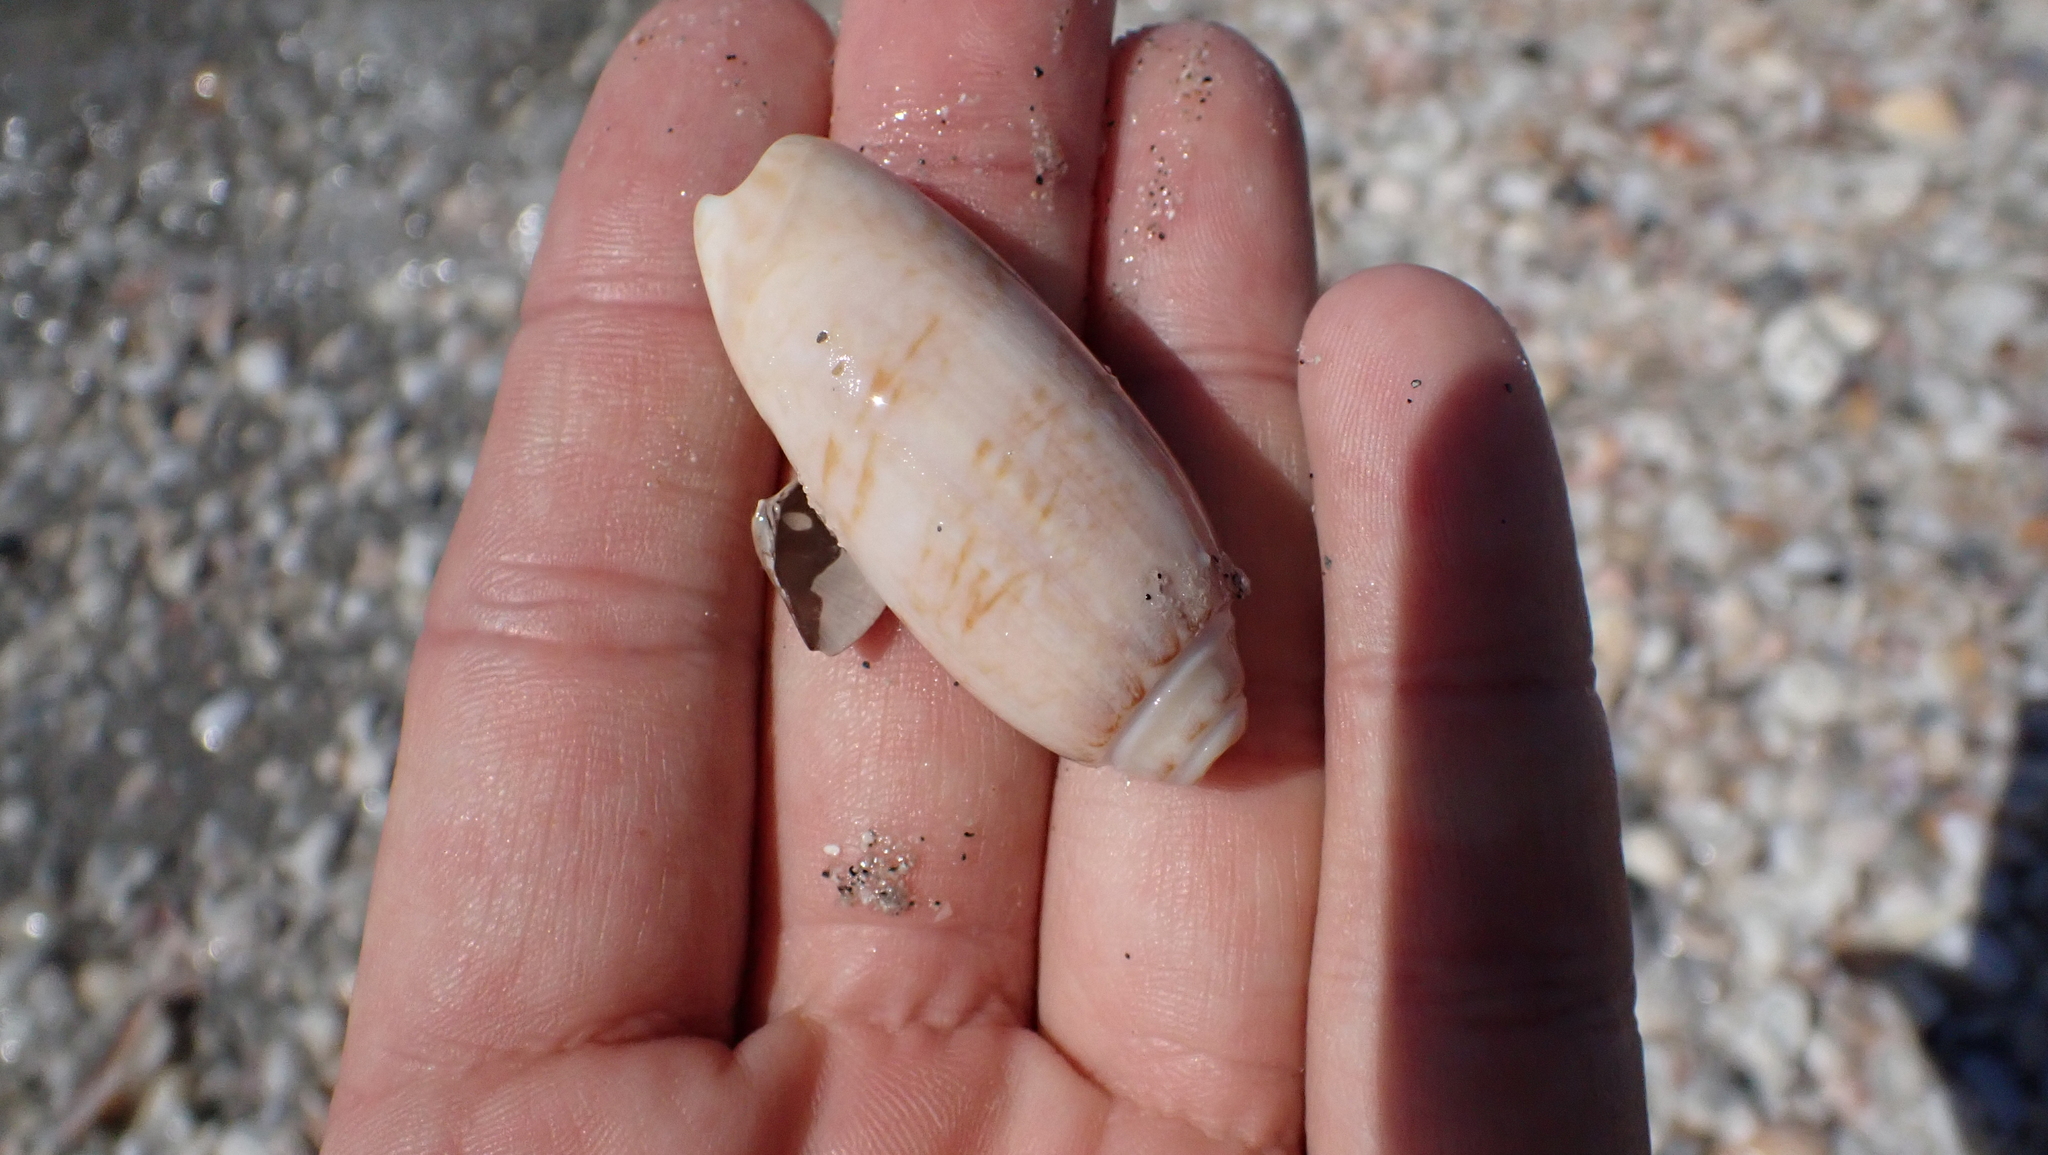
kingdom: Animalia
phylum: Mollusca
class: Gastropoda
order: Neogastropoda
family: Olividae
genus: Oliva
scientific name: Oliva sayana
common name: Lettered olive
